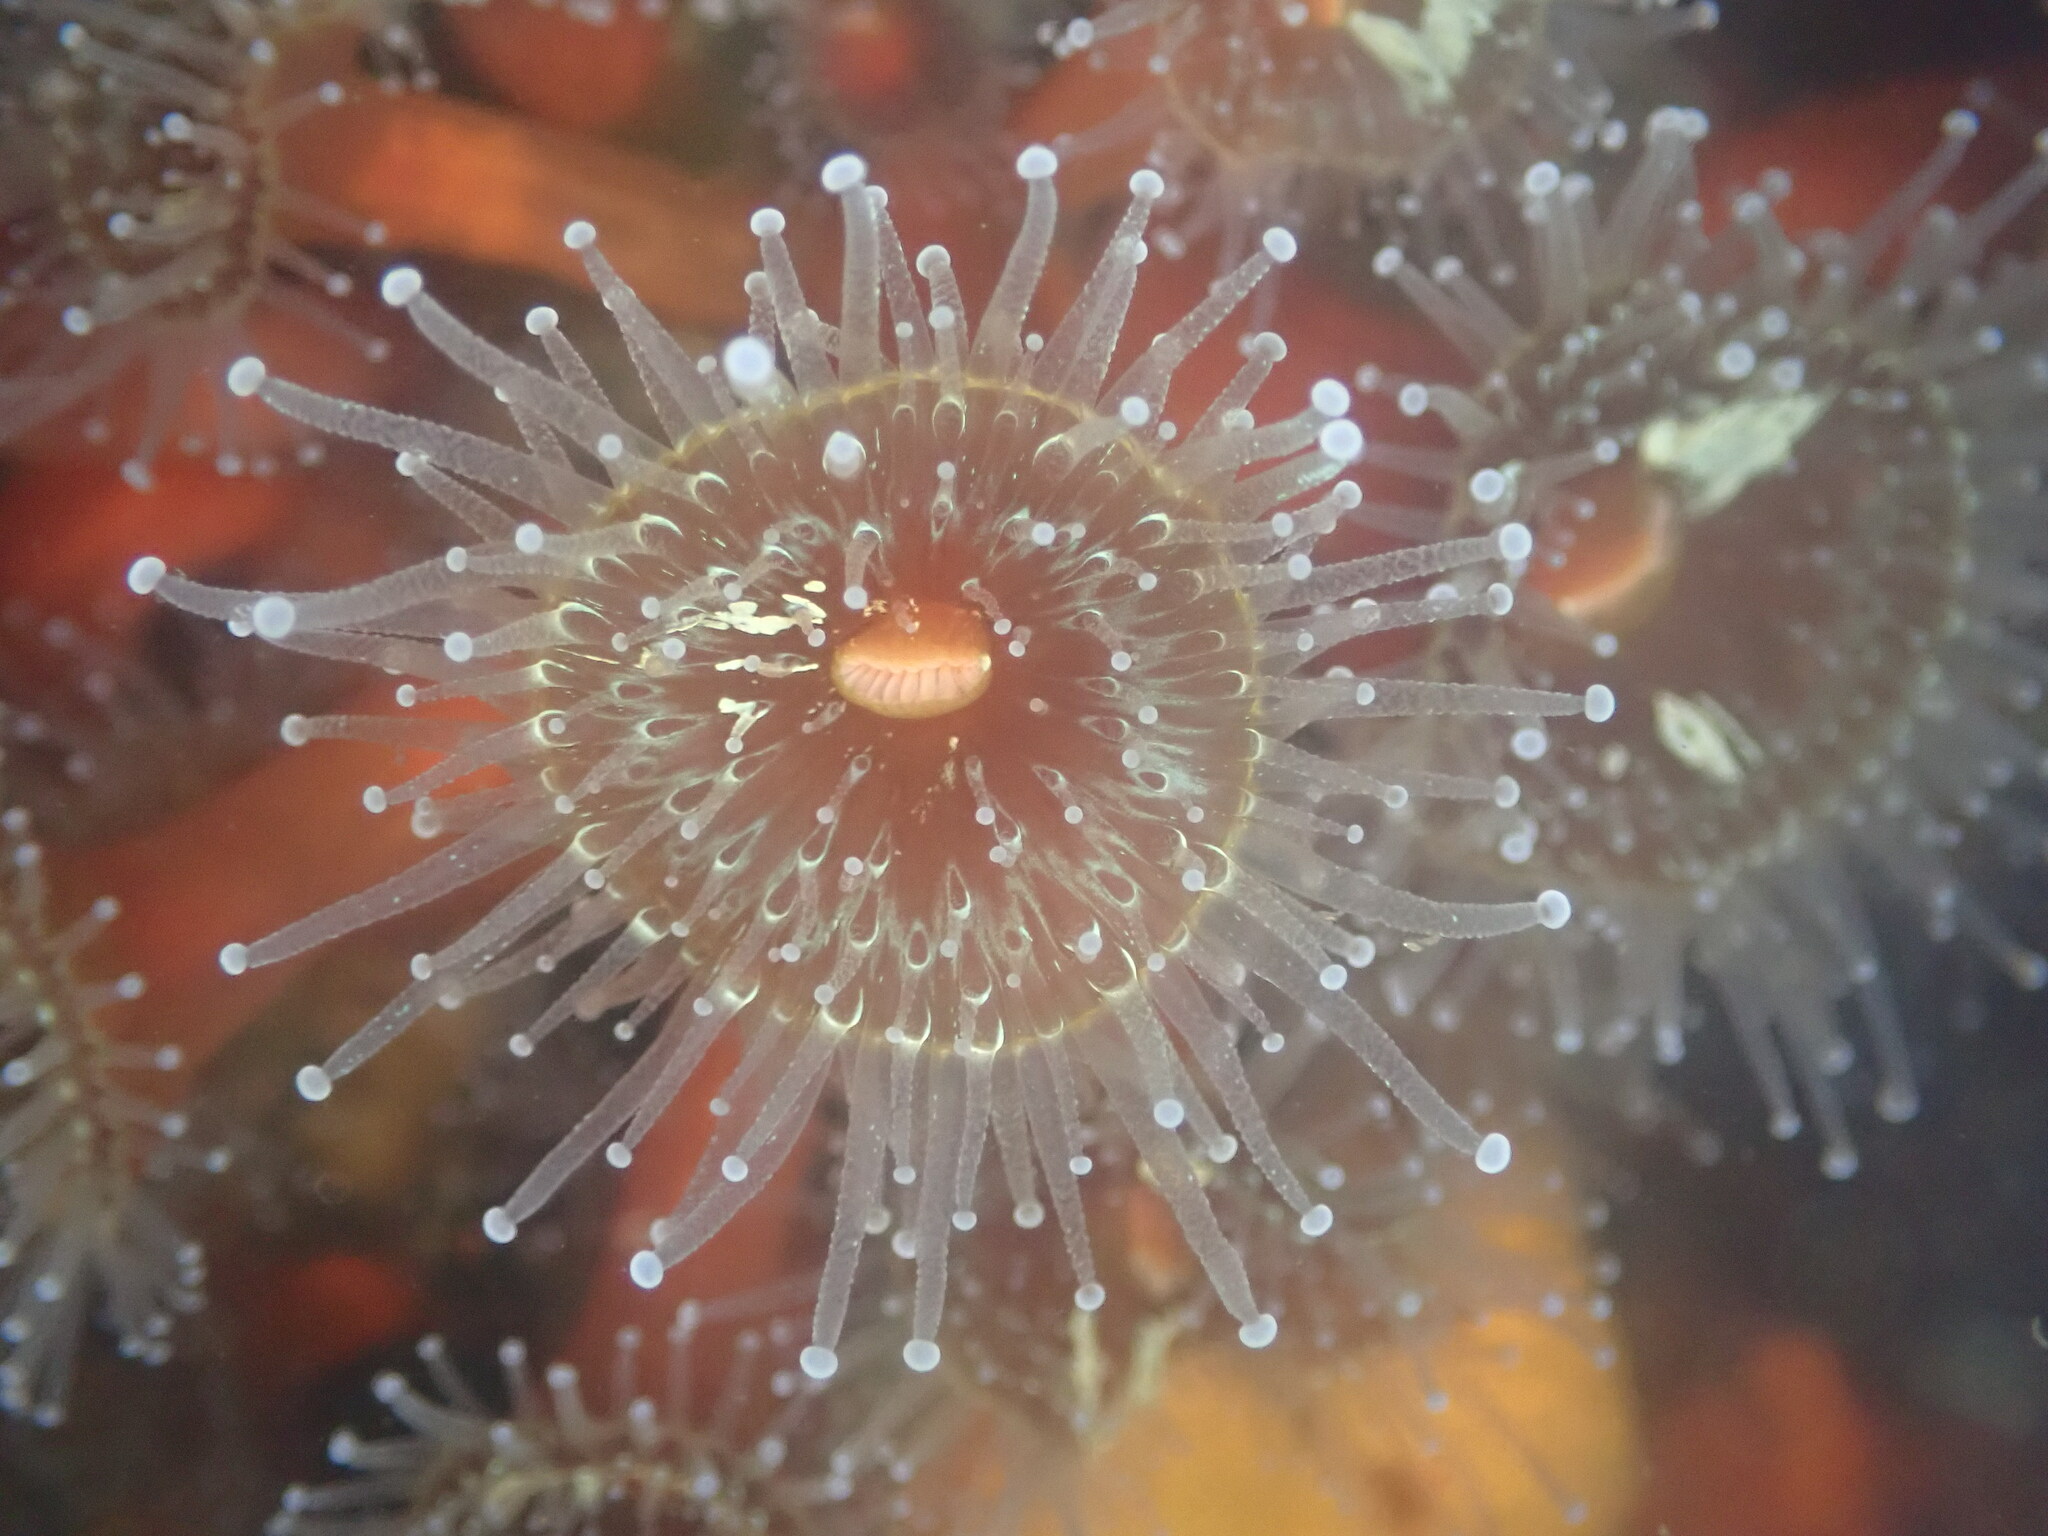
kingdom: Animalia
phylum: Cnidaria
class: Anthozoa
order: Corallimorpharia
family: Corallimorphidae
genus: Corynactis
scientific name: Corynactis californica
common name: Strawberry corallimorpharian
